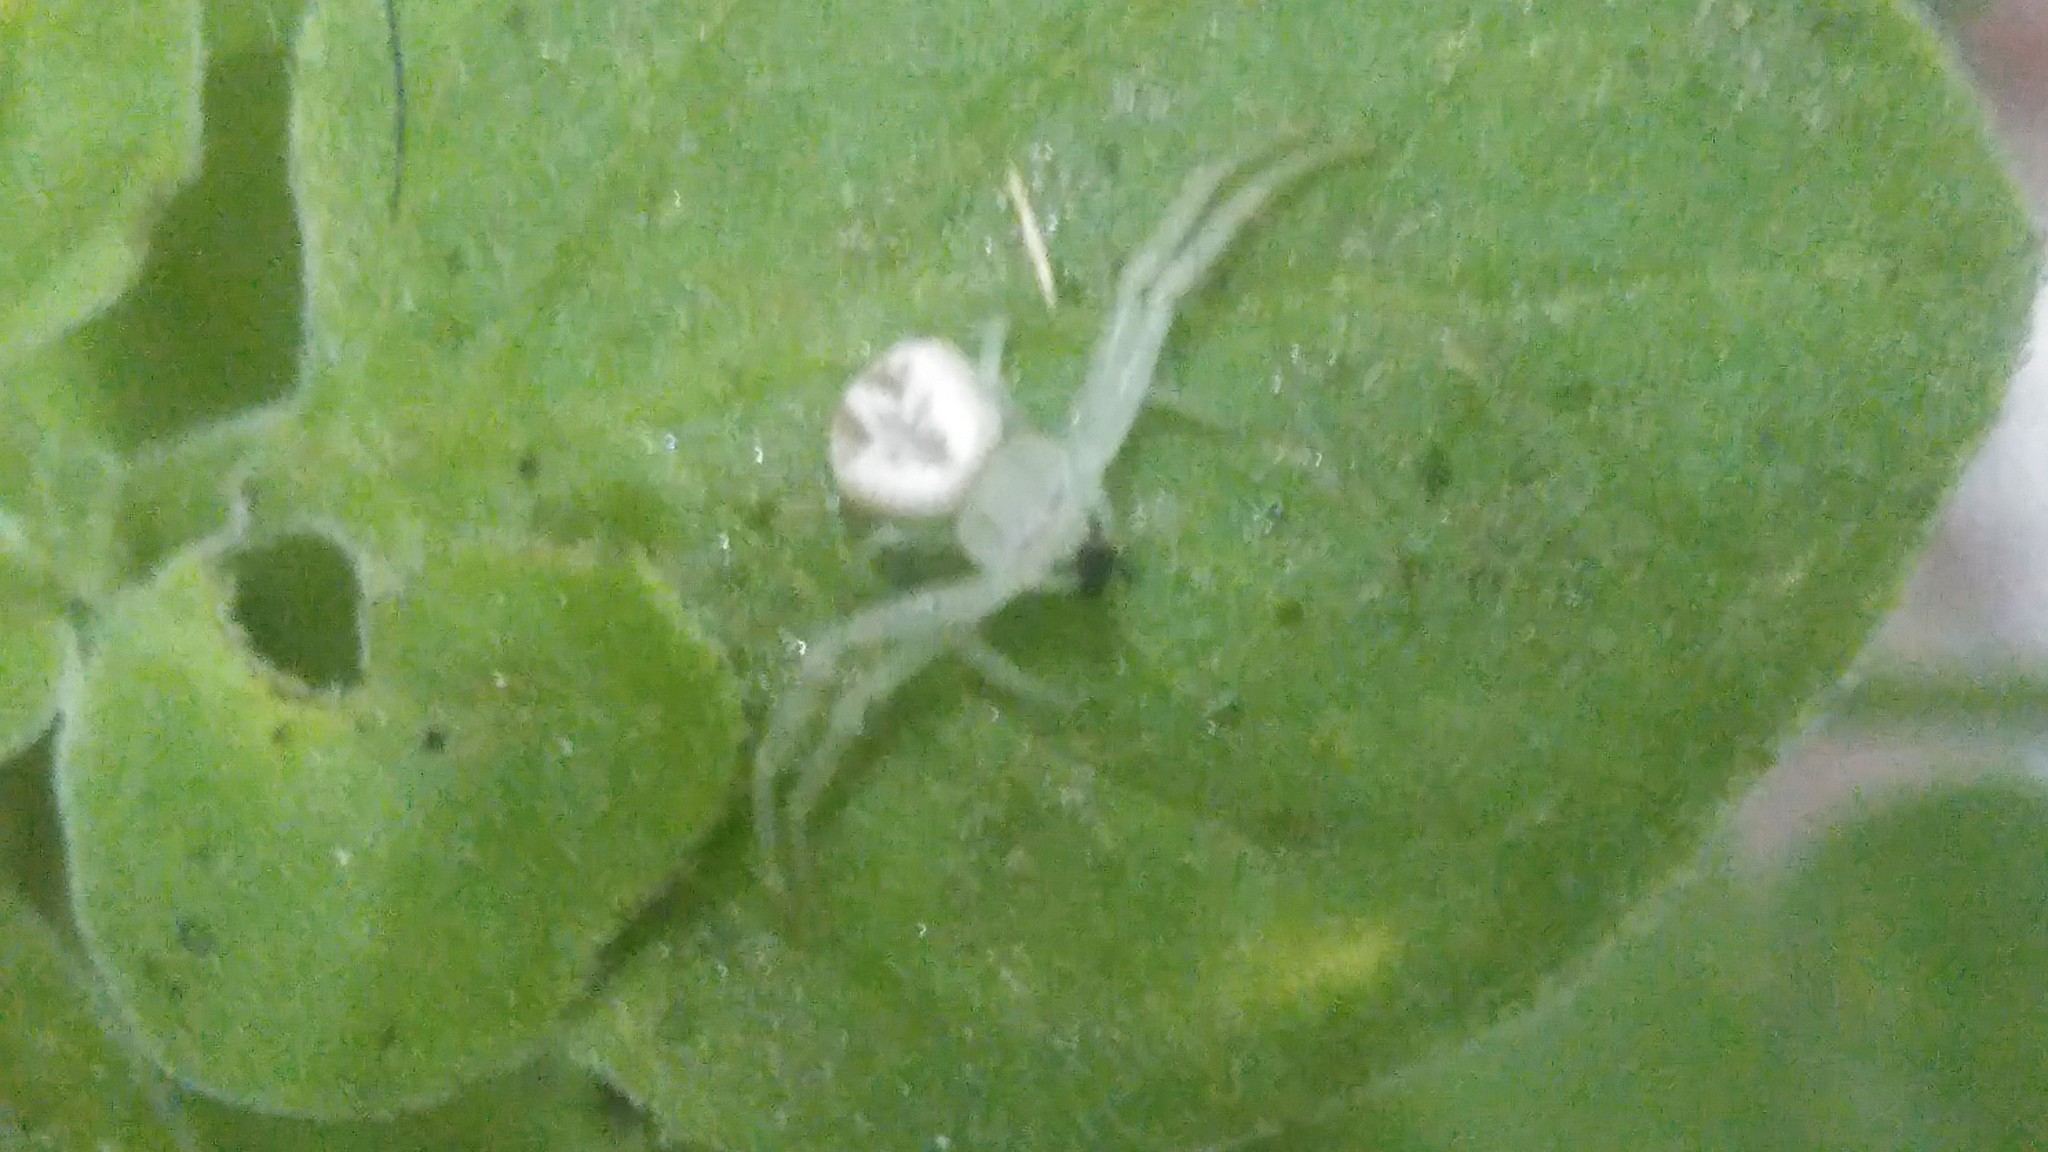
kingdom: Animalia
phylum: Arthropoda
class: Arachnida
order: Araneae
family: Thomisidae
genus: Misumenops
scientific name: Misumenops
